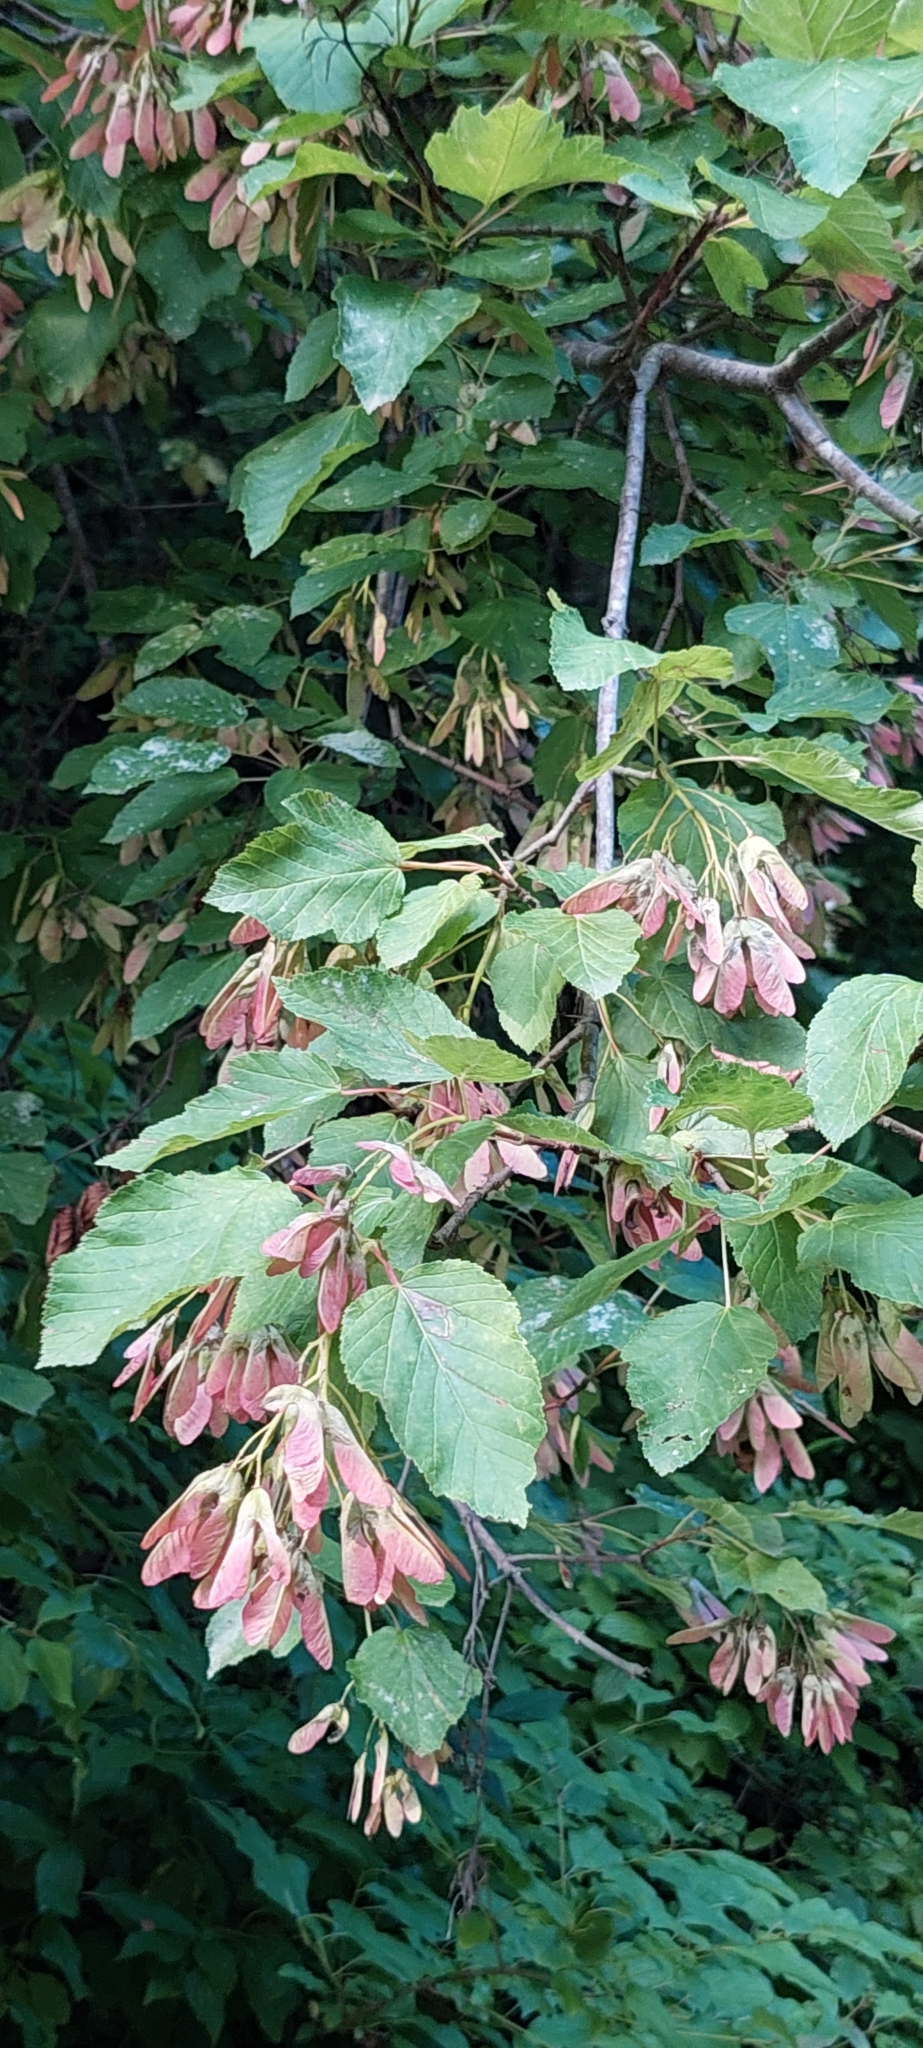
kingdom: Plantae
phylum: Tracheophyta
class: Magnoliopsida
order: Sapindales
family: Sapindaceae
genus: Acer
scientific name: Acer tataricum
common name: Tartar maple
